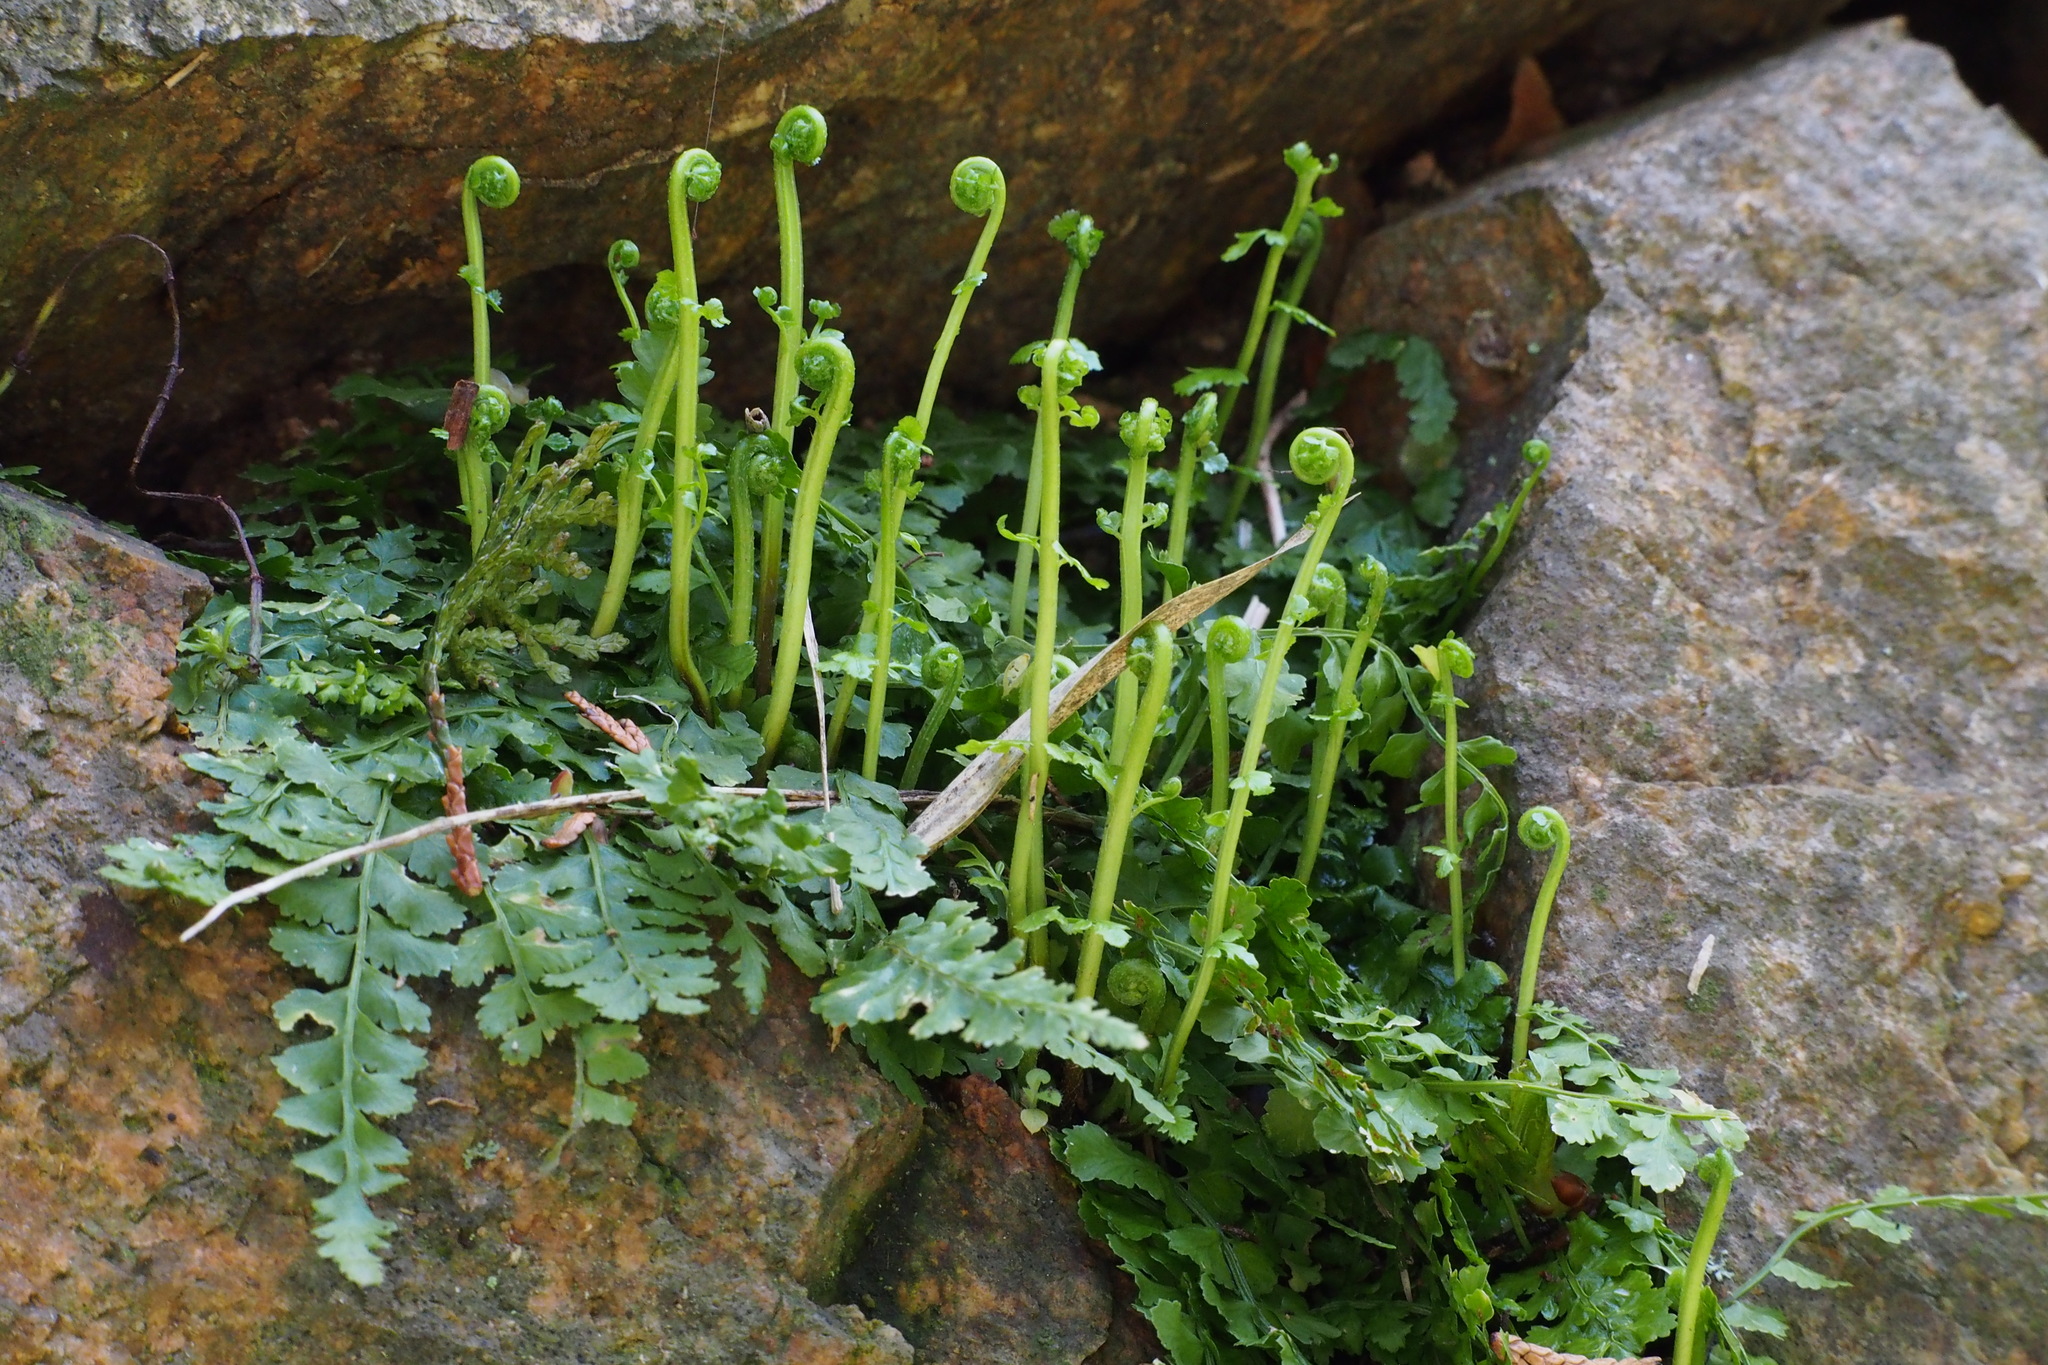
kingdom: Plantae
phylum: Tracheophyta
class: Polypodiopsida
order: Polypodiales
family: Aspleniaceae
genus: Asplenium
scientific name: Asplenium incisum
